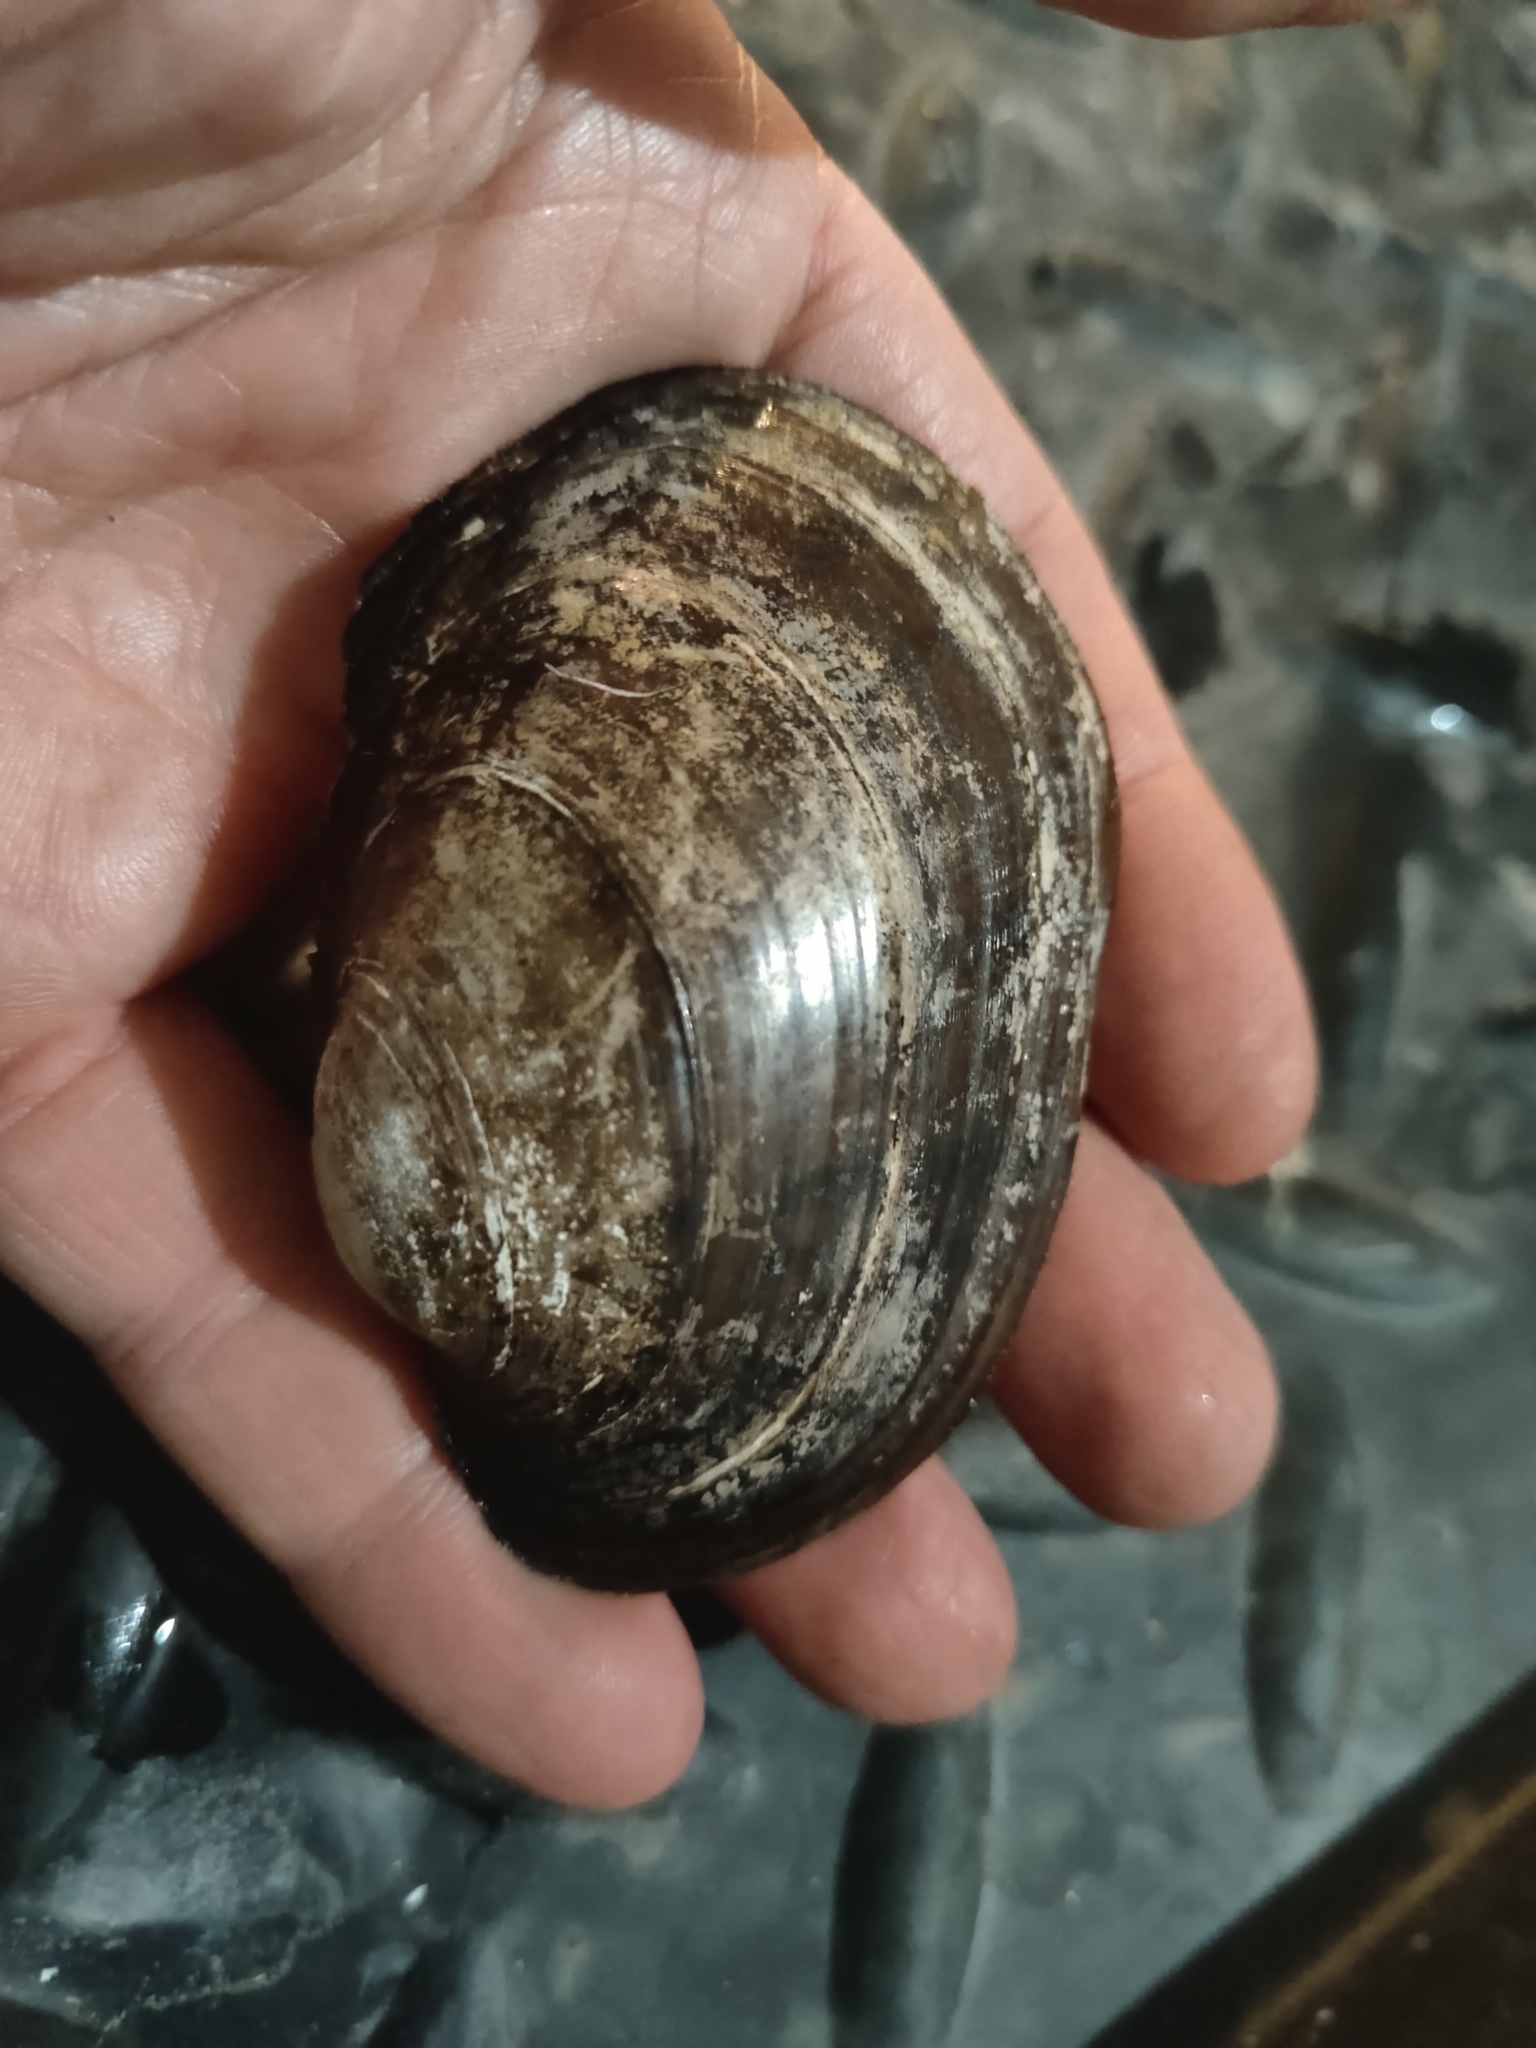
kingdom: Animalia
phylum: Mollusca
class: Bivalvia
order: Unionida
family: Unionidae
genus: Lampsilis
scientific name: Lampsilis cardium
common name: Plain pocketbook
